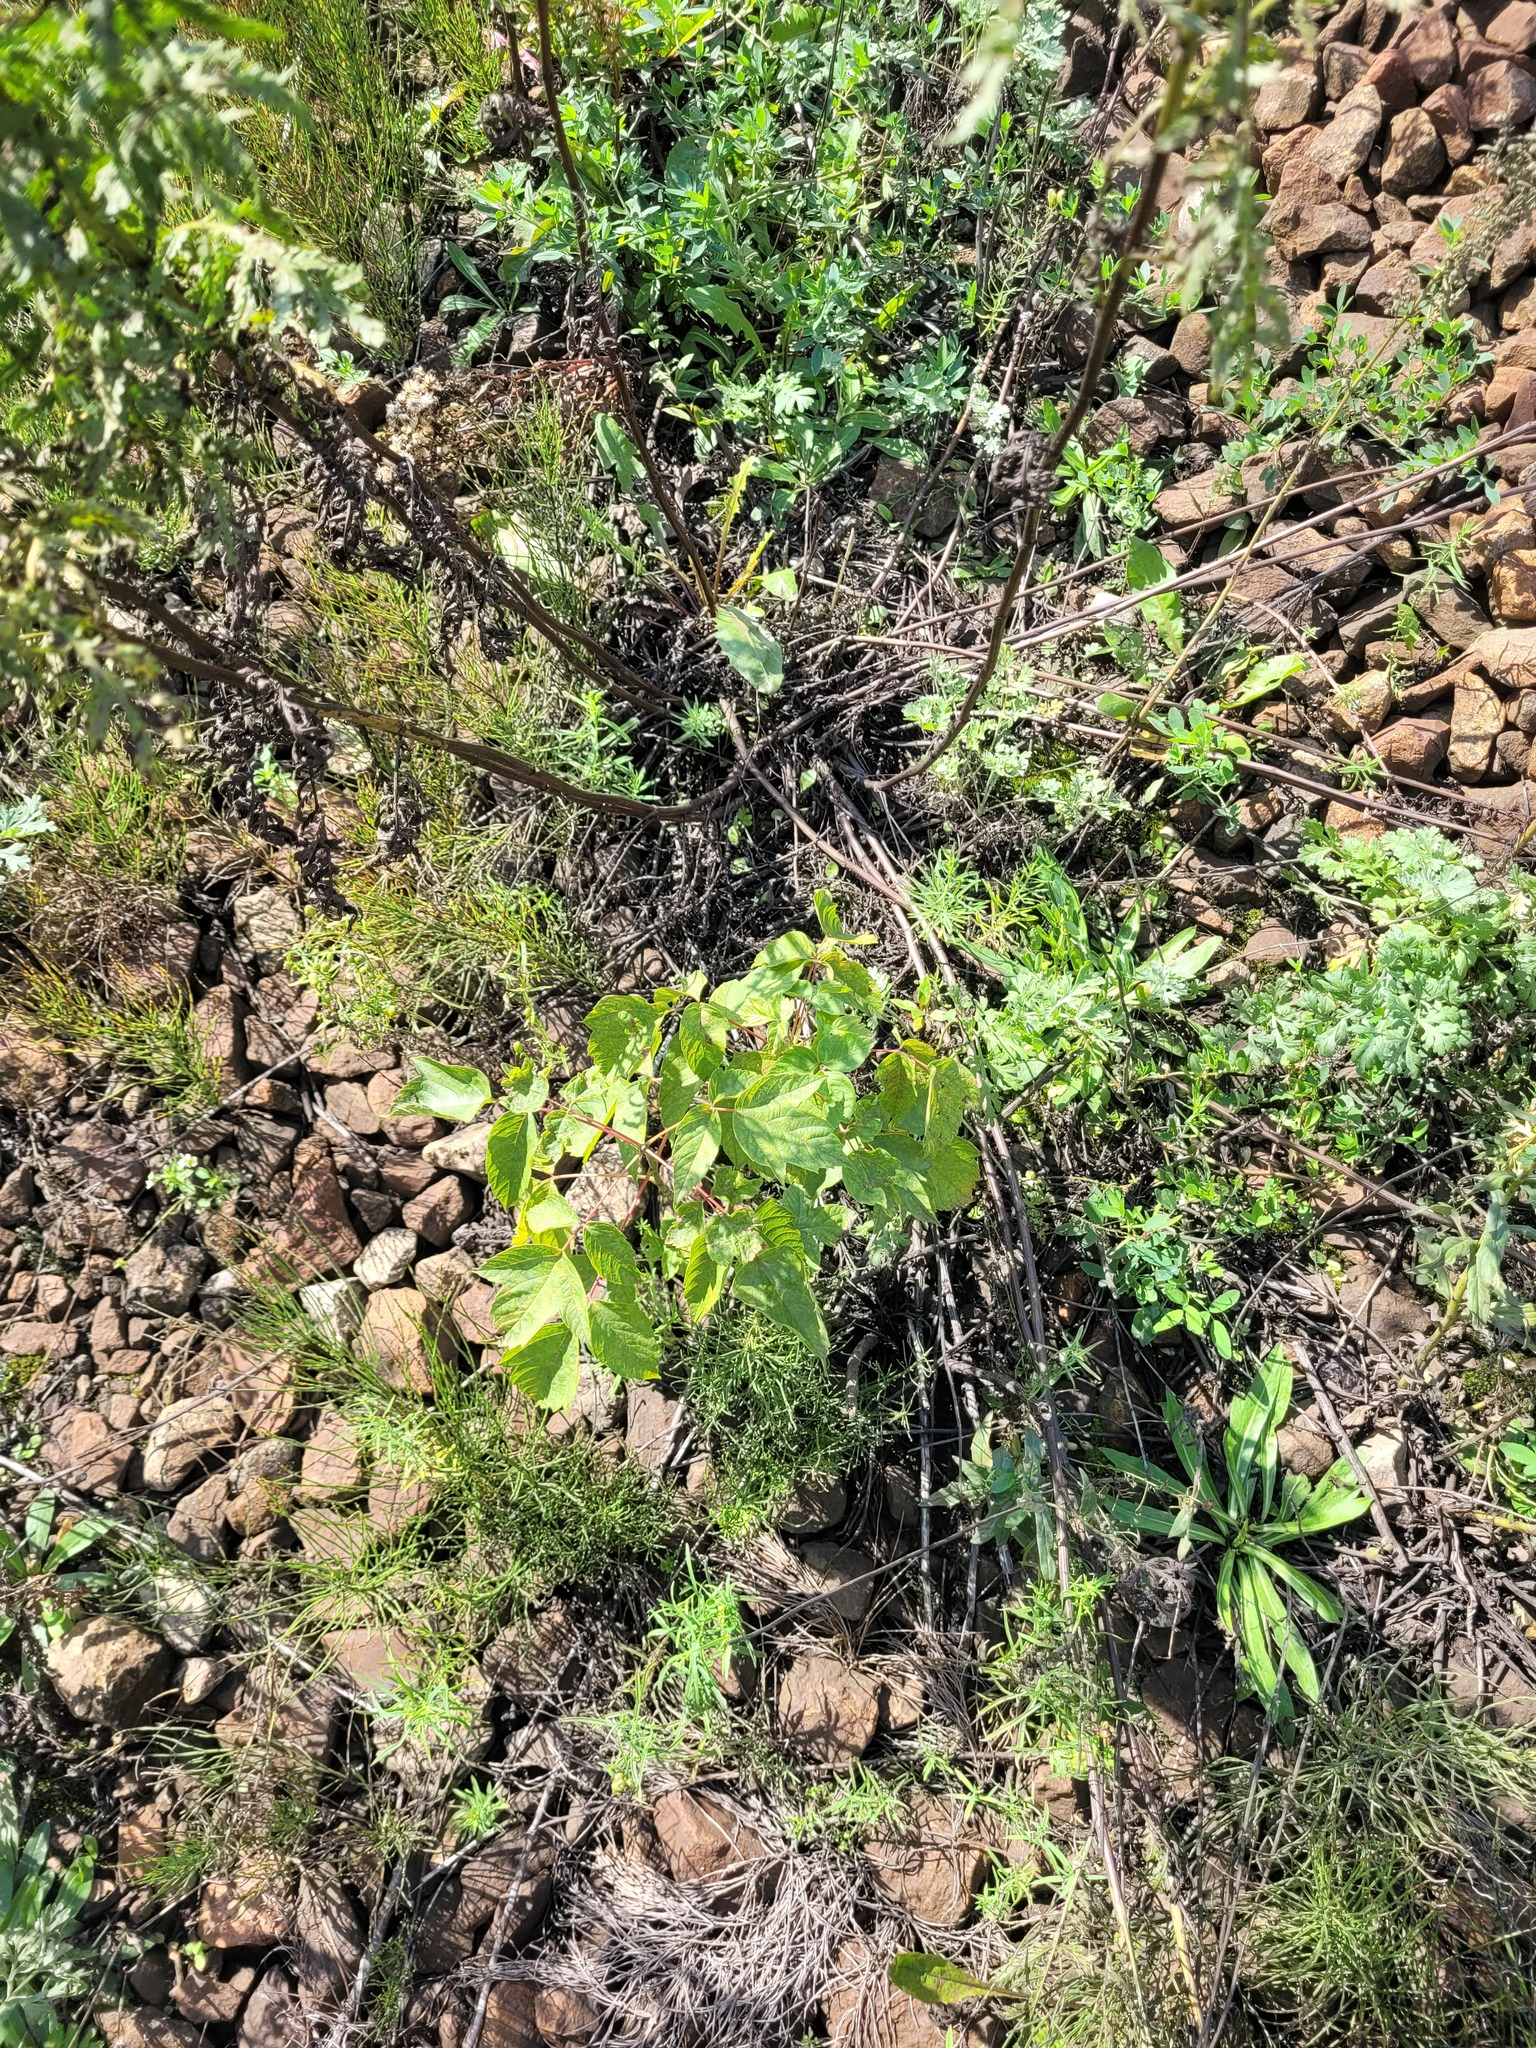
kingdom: Plantae
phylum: Tracheophyta
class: Magnoliopsida
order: Sapindales
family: Sapindaceae
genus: Acer
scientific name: Acer negundo
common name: Ashleaf maple
